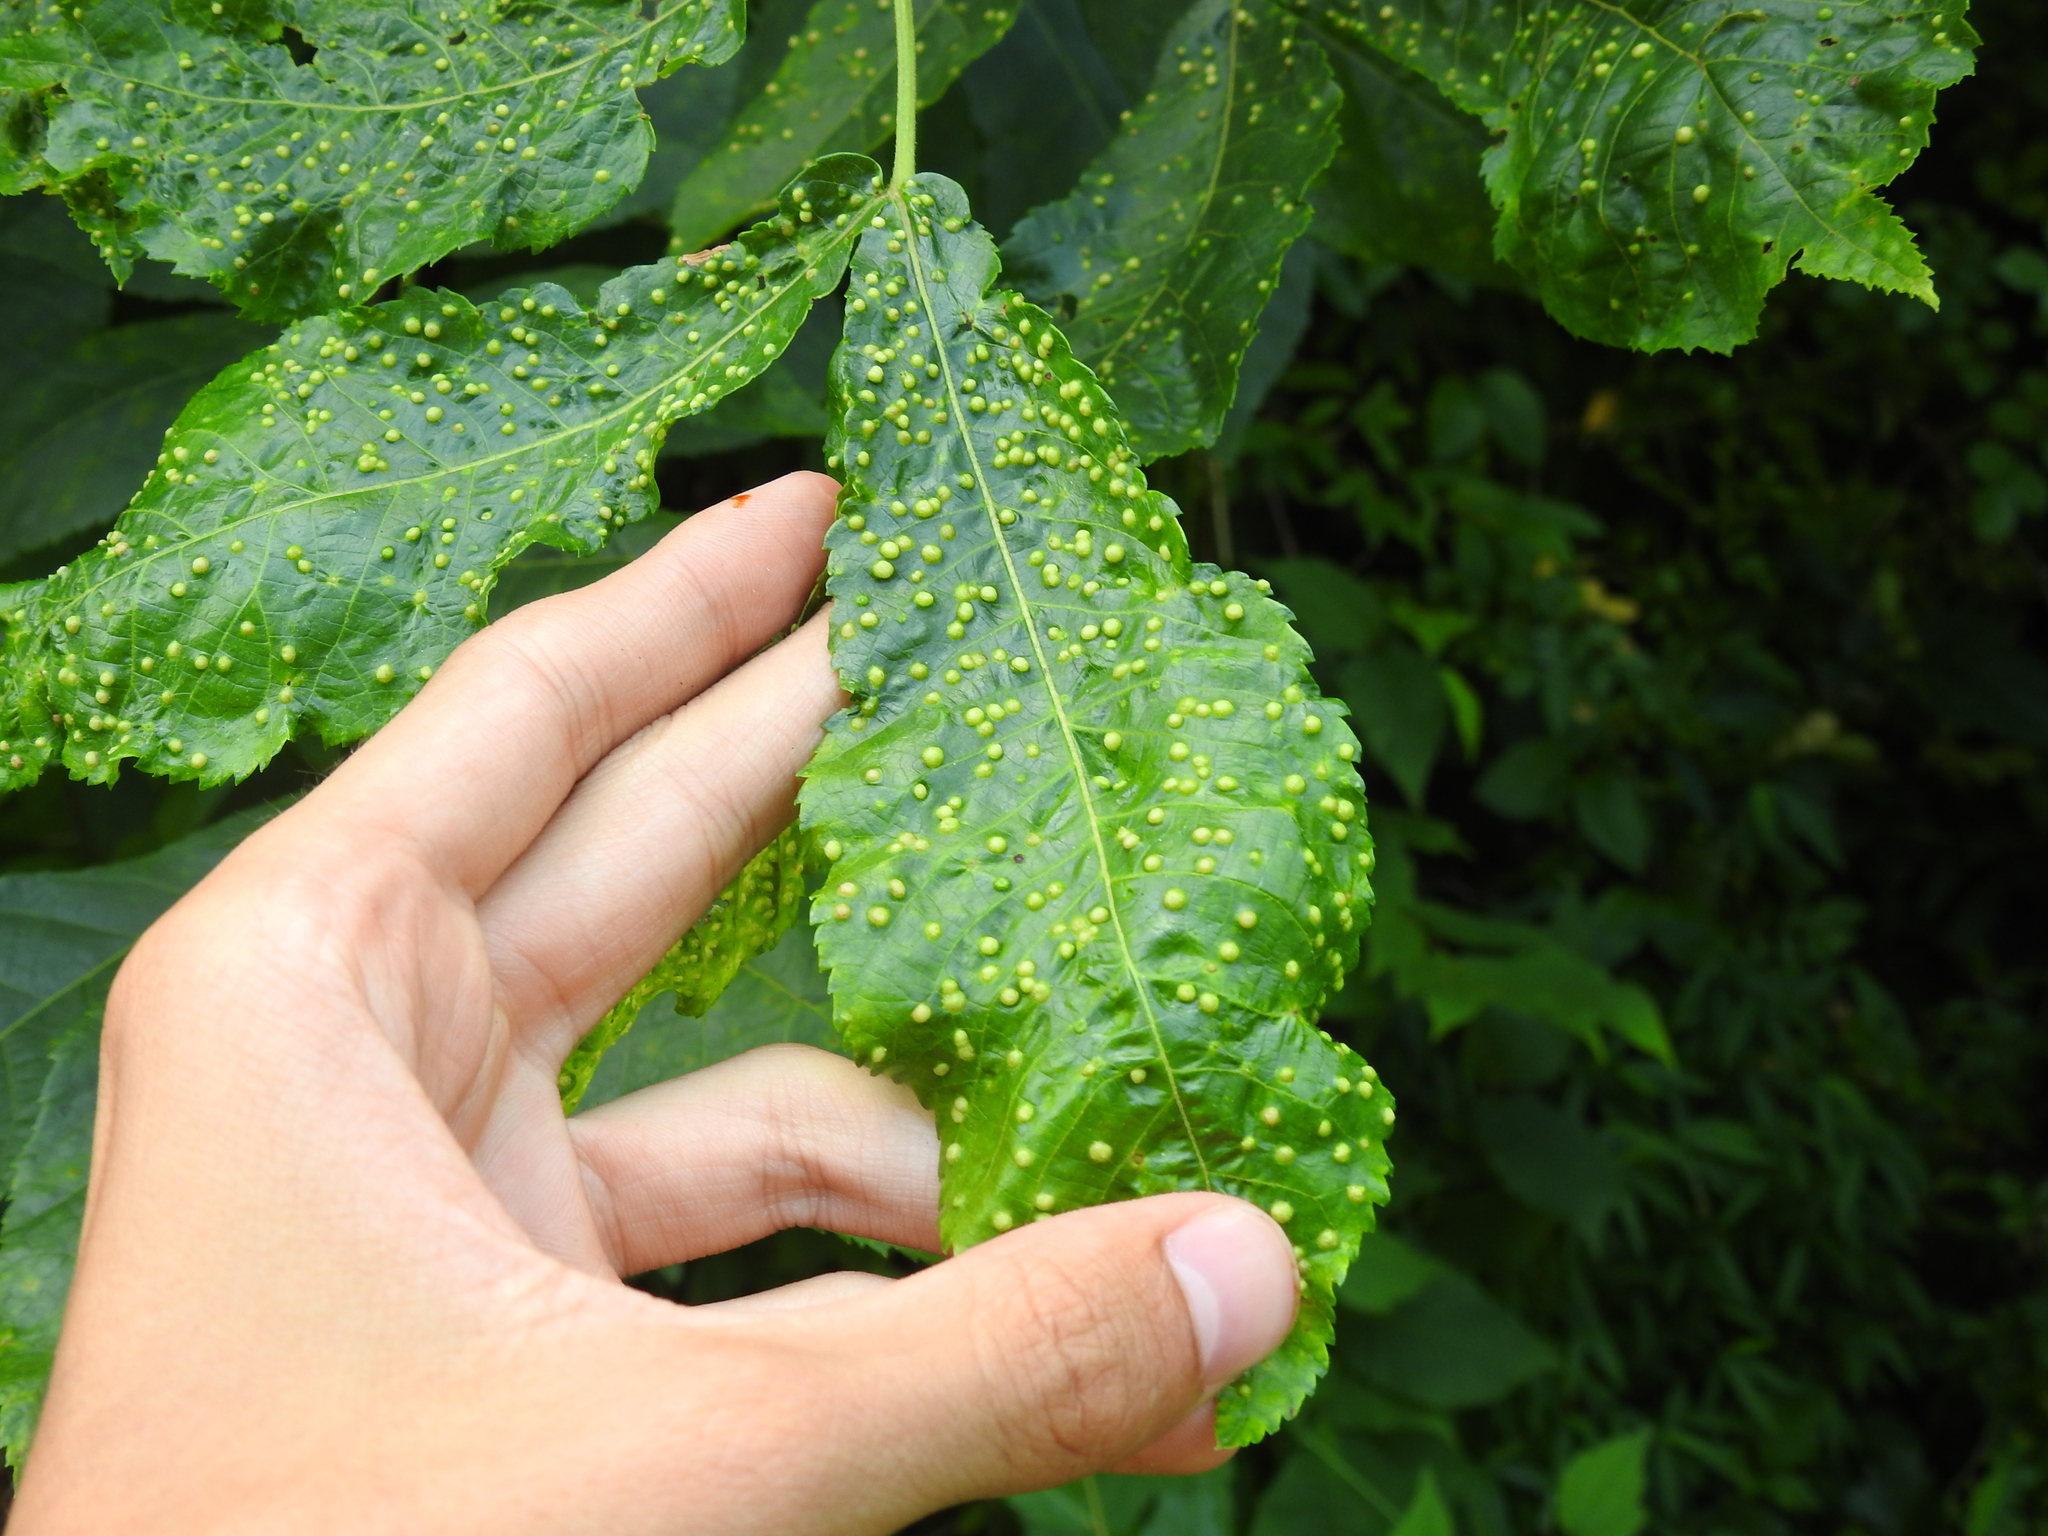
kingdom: Animalia
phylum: Arthropoda
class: Insecta
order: Hemiptera
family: Phylloxeridae
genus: Phylloxera
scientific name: Phylloxera caryae-semen
